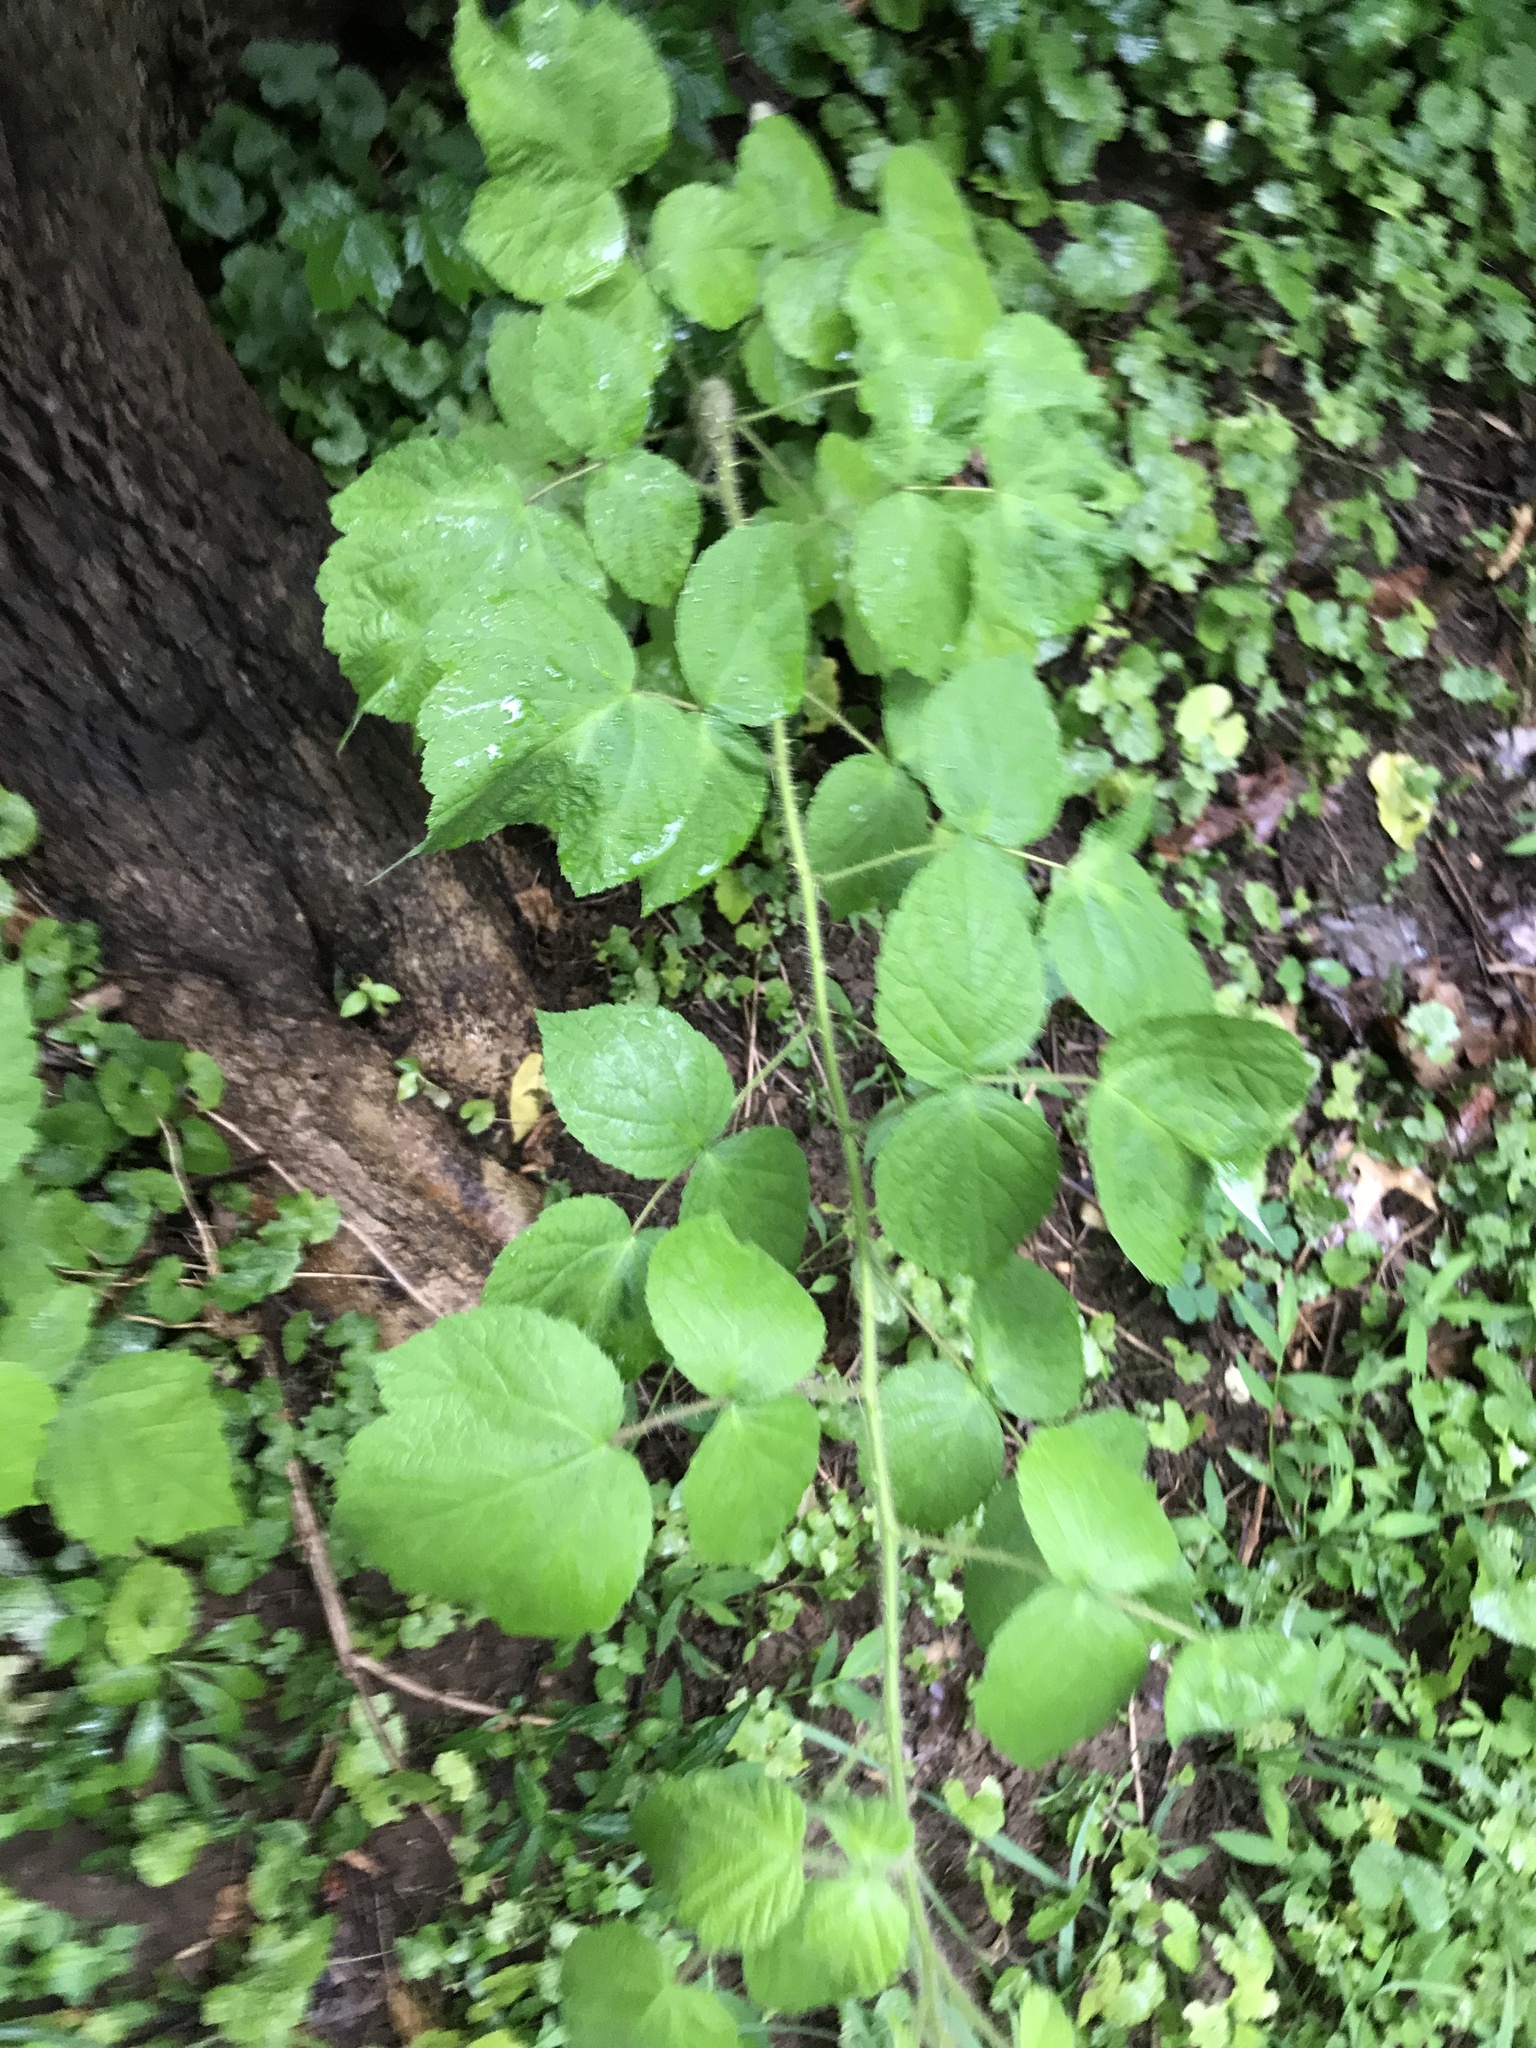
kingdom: Plantae
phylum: Tracheophyta
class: Magnoliopsida
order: Rosales
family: Rosaceae
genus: Rubus
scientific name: Rubus phoenicolasius
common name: Japanese wineberry
